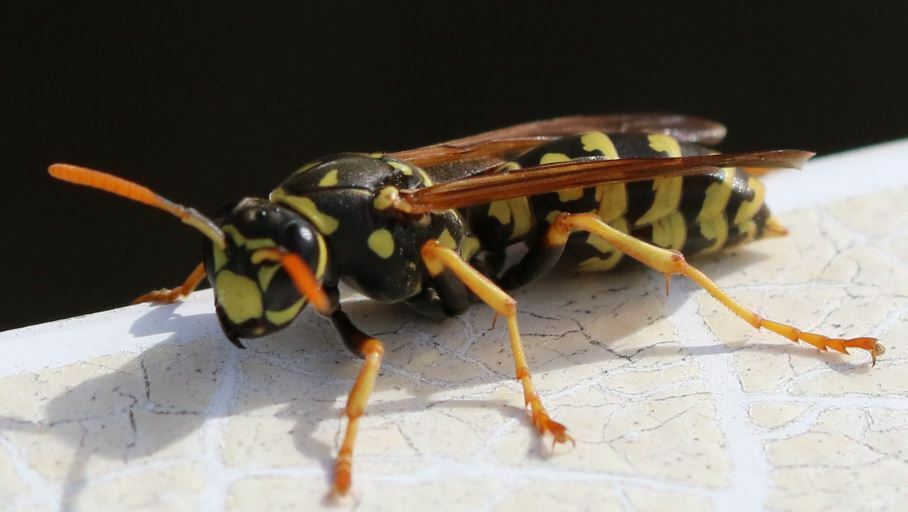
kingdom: Animalia
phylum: Arthropoda
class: Insecta
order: Hymenoptera
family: Eumenidae
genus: Polistes
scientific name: Polistes dominula
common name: Paper wasp
